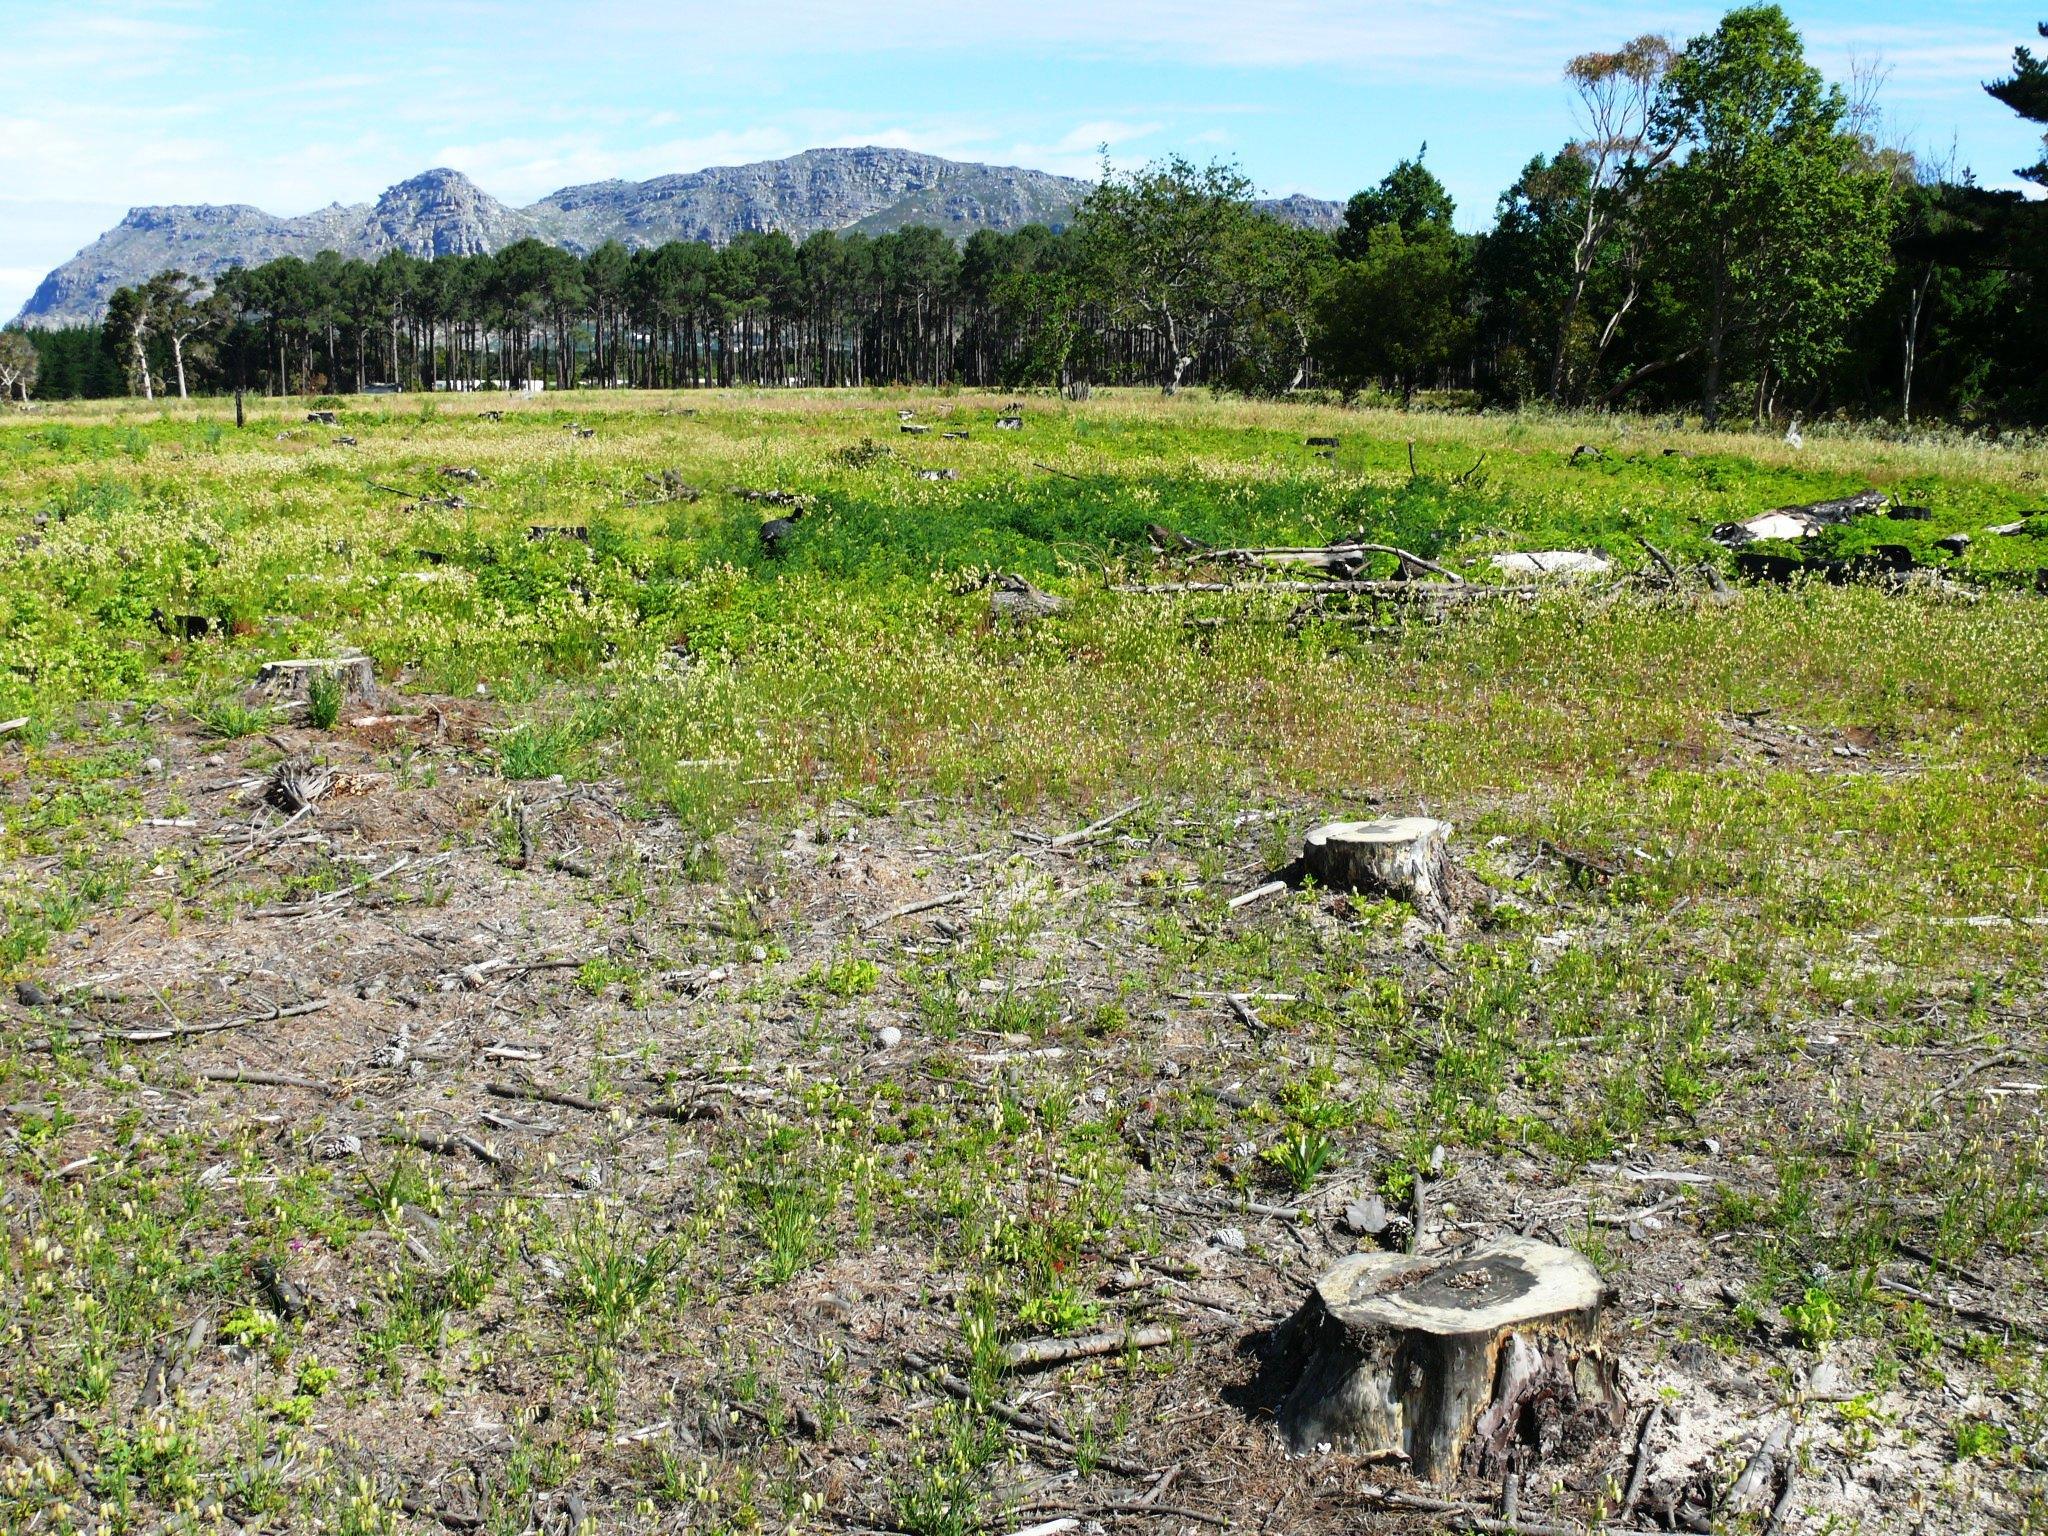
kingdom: Plantae
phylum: Tracheophyta
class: Liliopsida
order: Poales
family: Poaceae
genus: Briza
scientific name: Briza maxima
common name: Big quakinggrass
